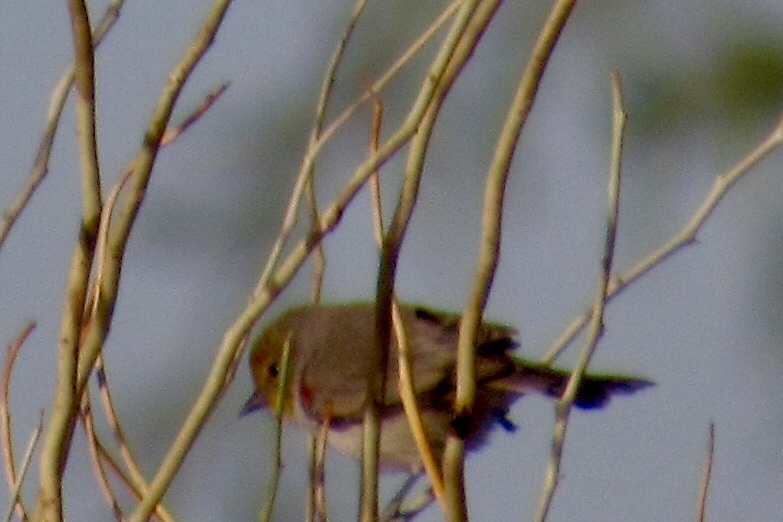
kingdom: Animalia
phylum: Chordata
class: Aves
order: Passeriformes
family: Remizidae
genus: Auriparus
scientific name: Auriparus flaviceps
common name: Verdin
